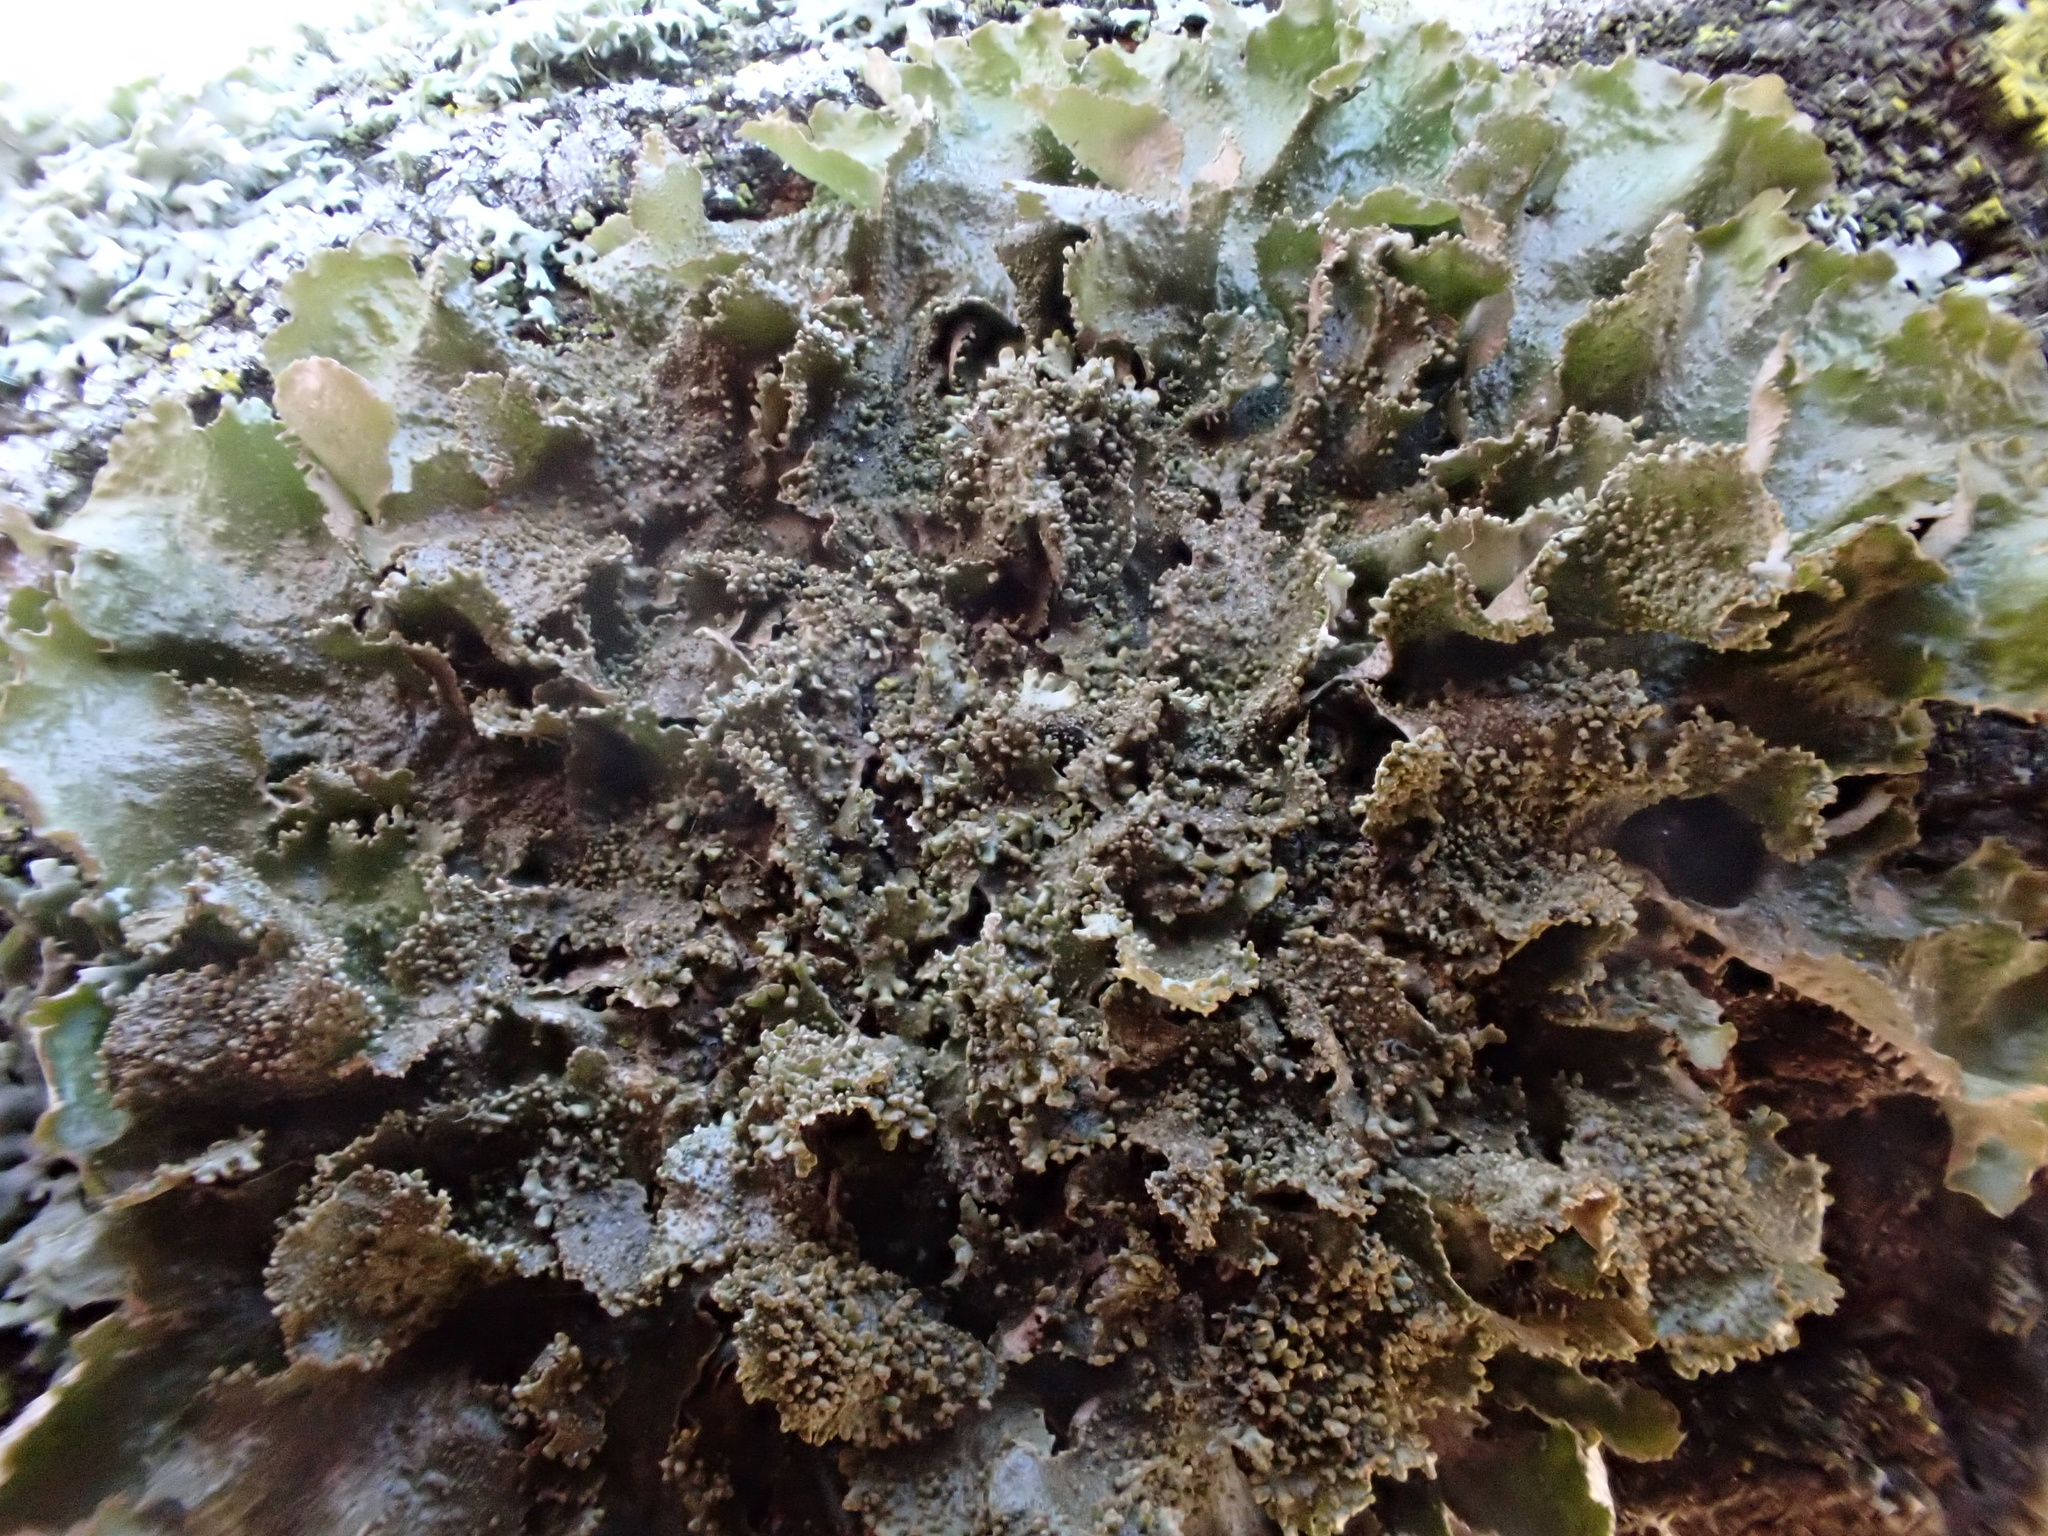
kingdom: Fungi
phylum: Ascomycota
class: Lecanoromycetes
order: Lecanorales
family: Parmeliaceae
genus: Melanohalea
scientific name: Melanohalea exasperatula
